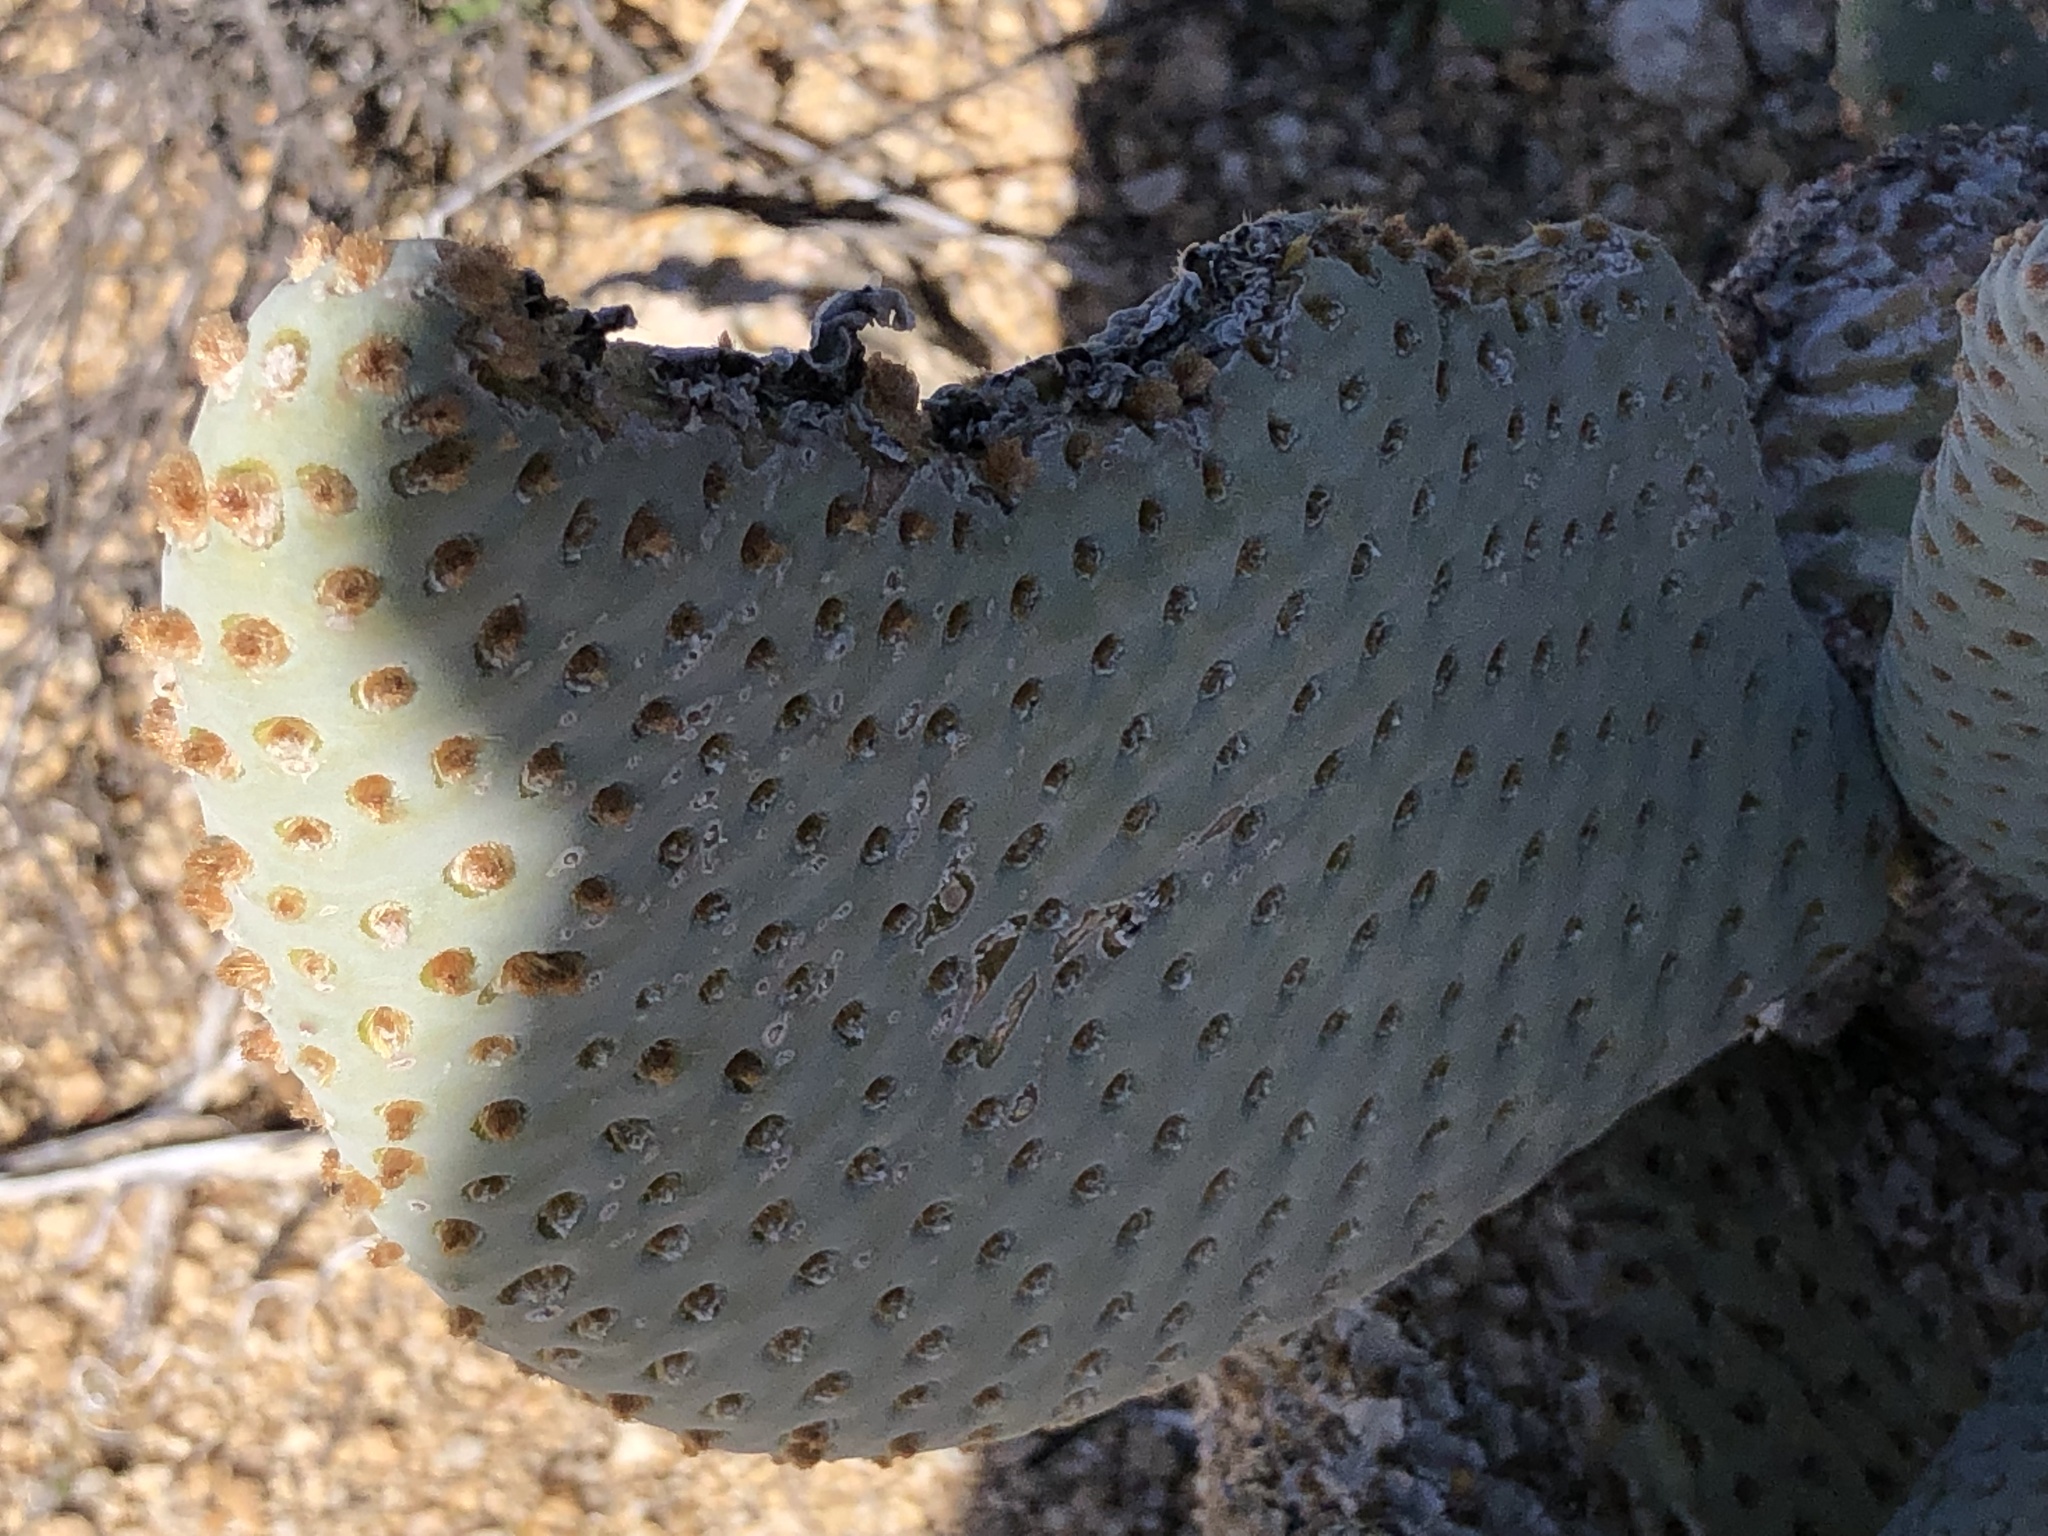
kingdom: Plantae
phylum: Tracheophyta
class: Magnoliopsida
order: Caryophyllales
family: Cactaceae
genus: Opuntia
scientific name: Opuntia basilaris
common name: Beavertail prickly-pear
